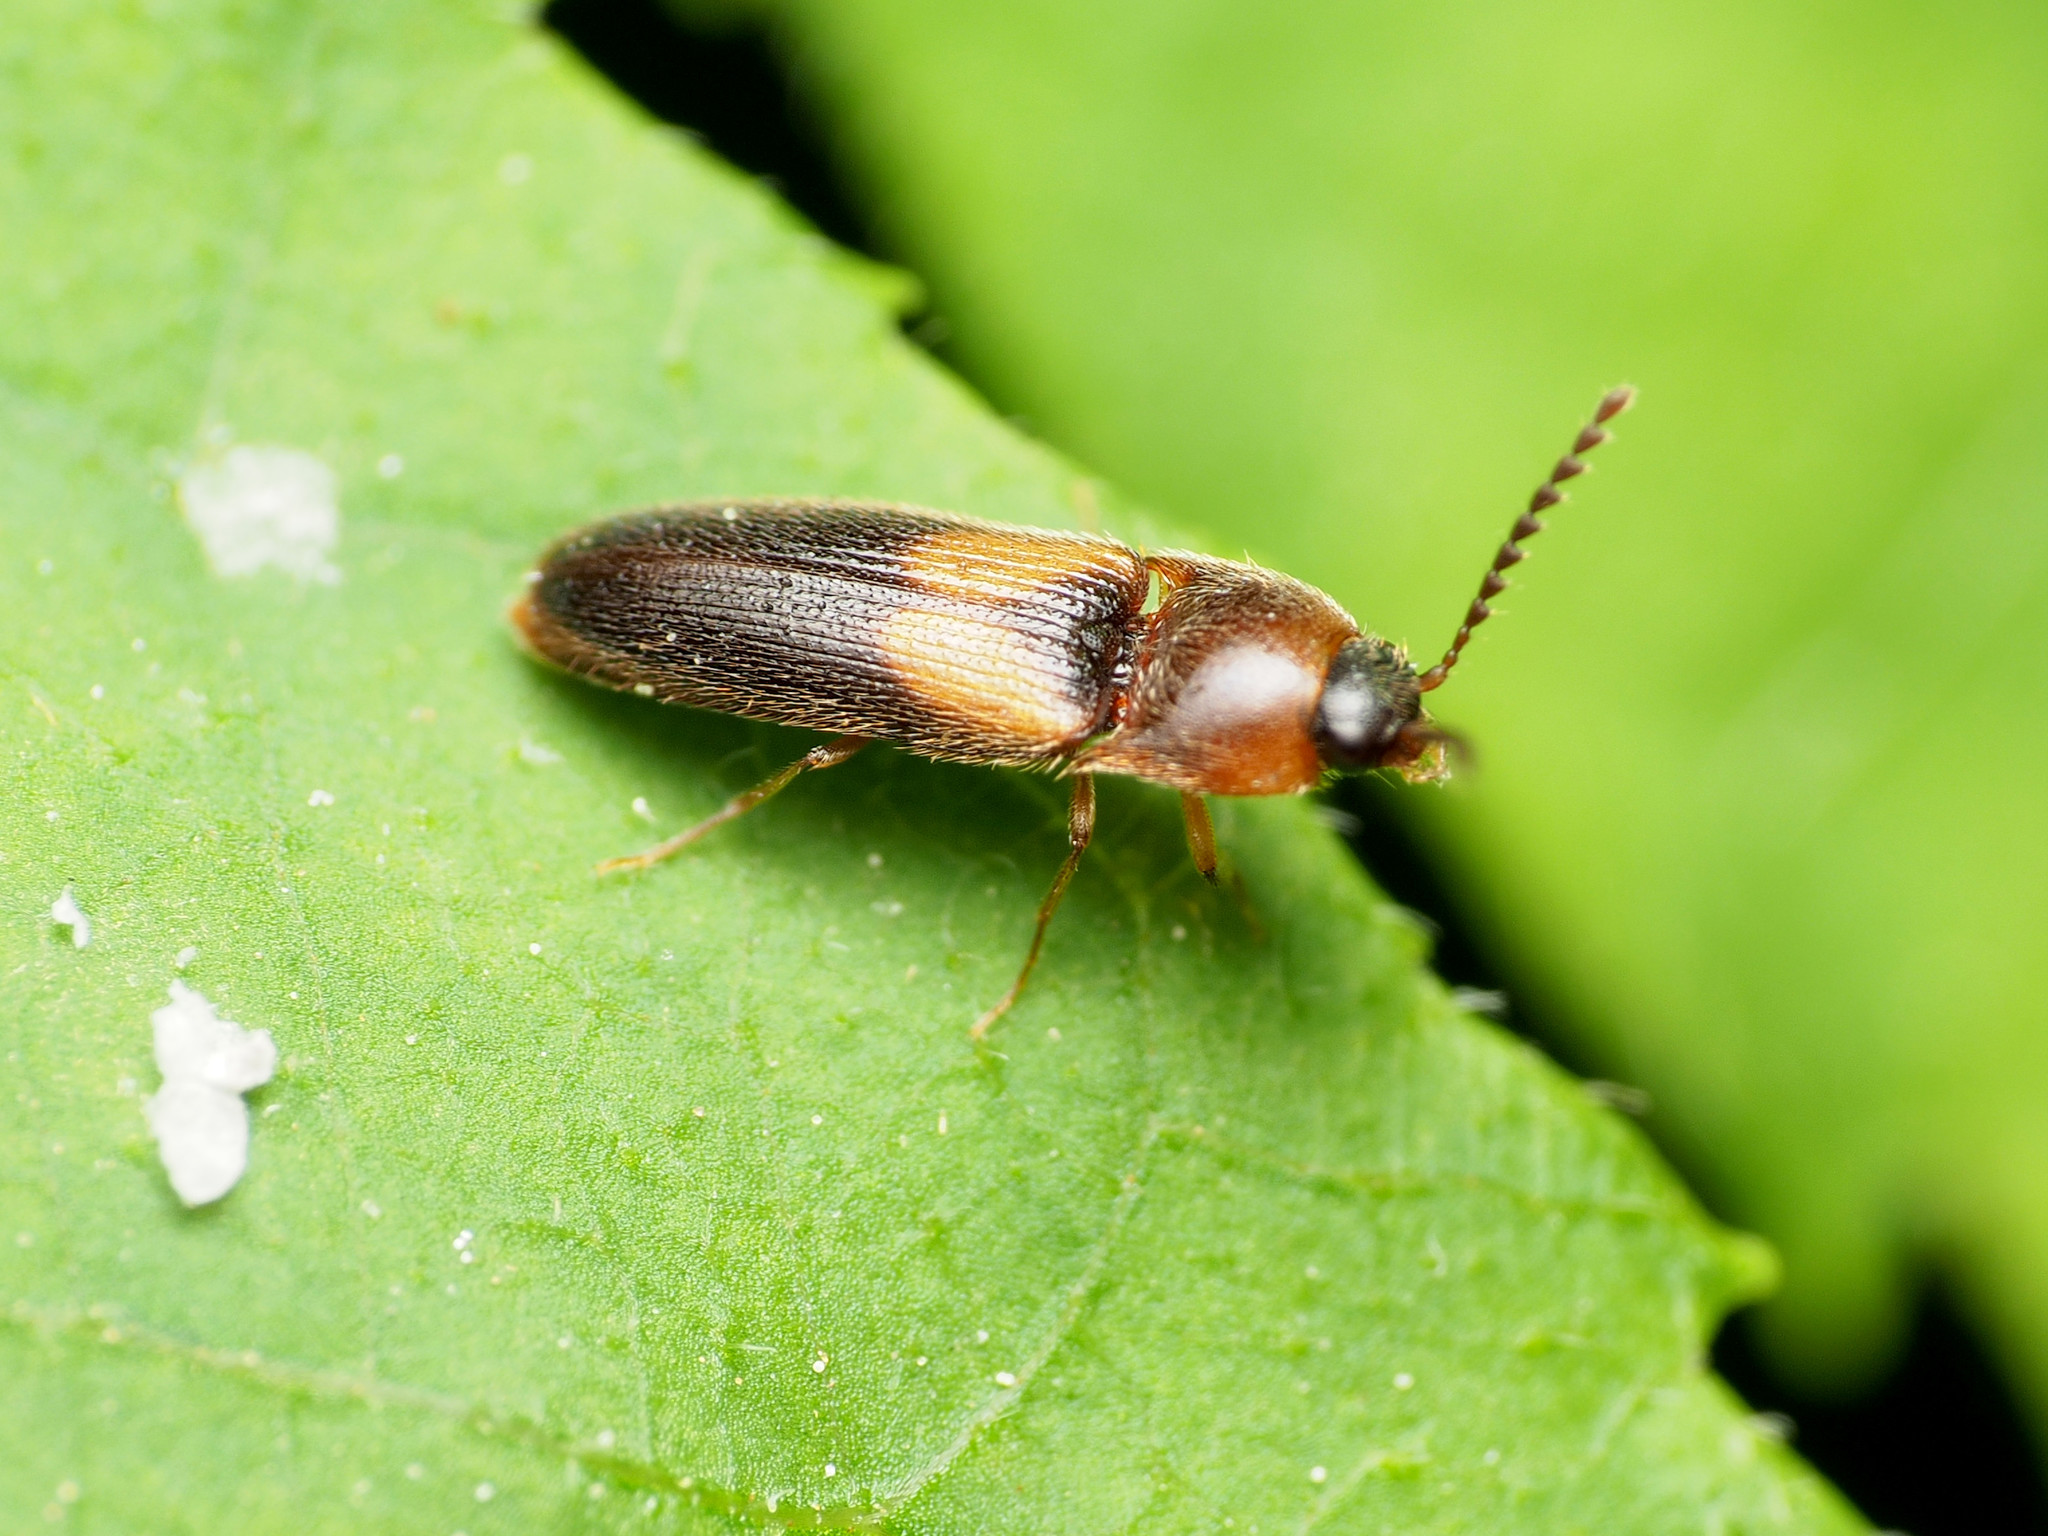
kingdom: Animalia
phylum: Arthropoda
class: Insecta
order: Coleoptera
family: Elateridae
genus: Ampedus
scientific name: Ampedus areolatus
